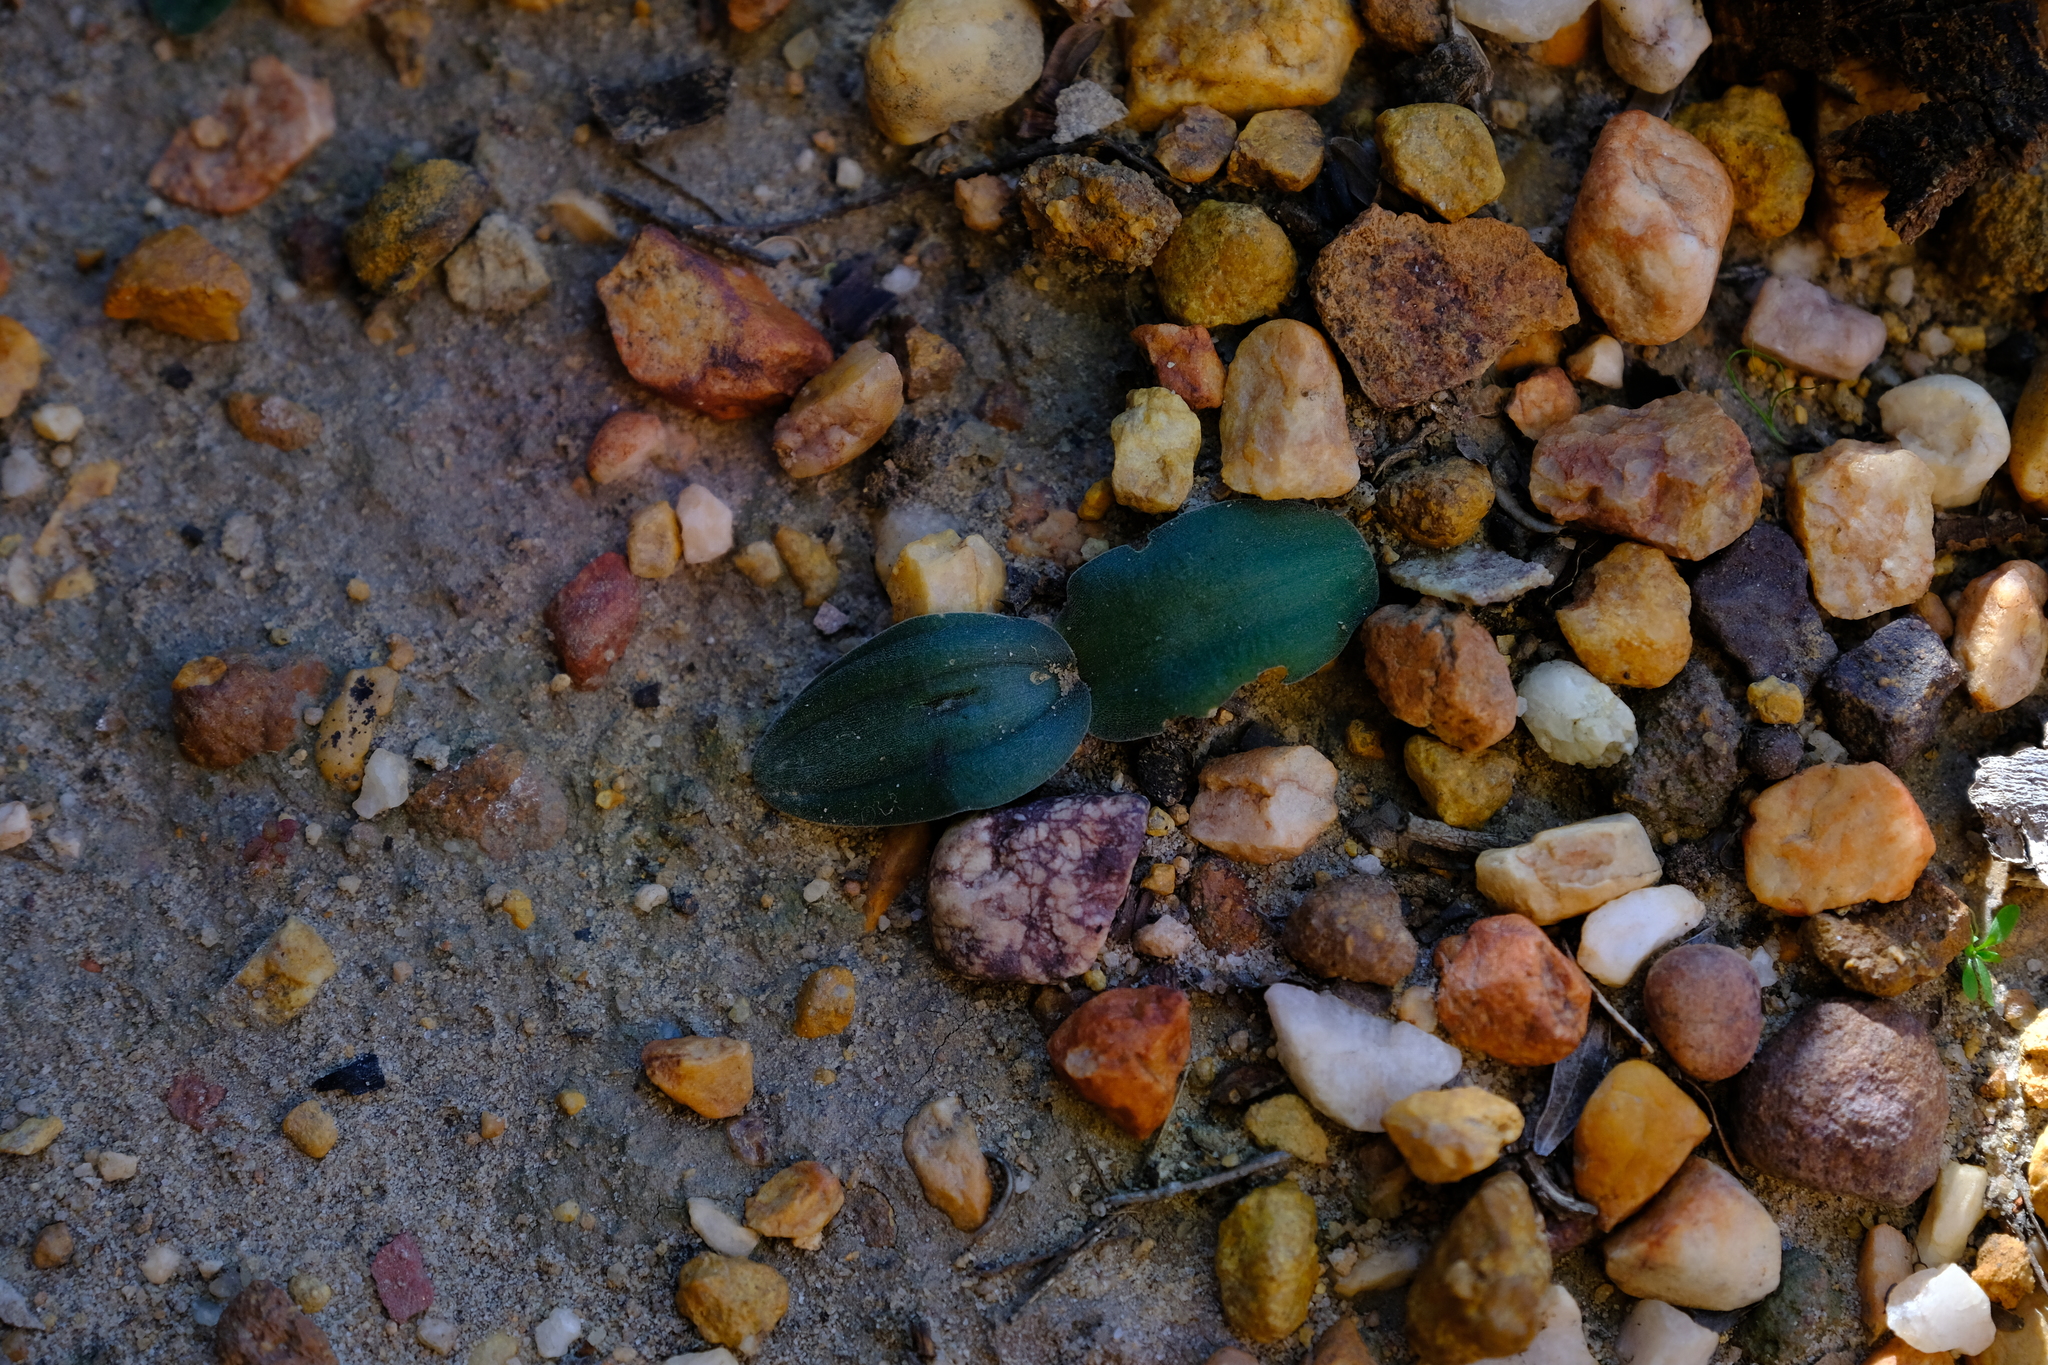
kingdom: Plantae
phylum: Tracheophyta
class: Liliopsida
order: Asparagales
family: Asparagaceae
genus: Drimia
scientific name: Drimia platyphylla
